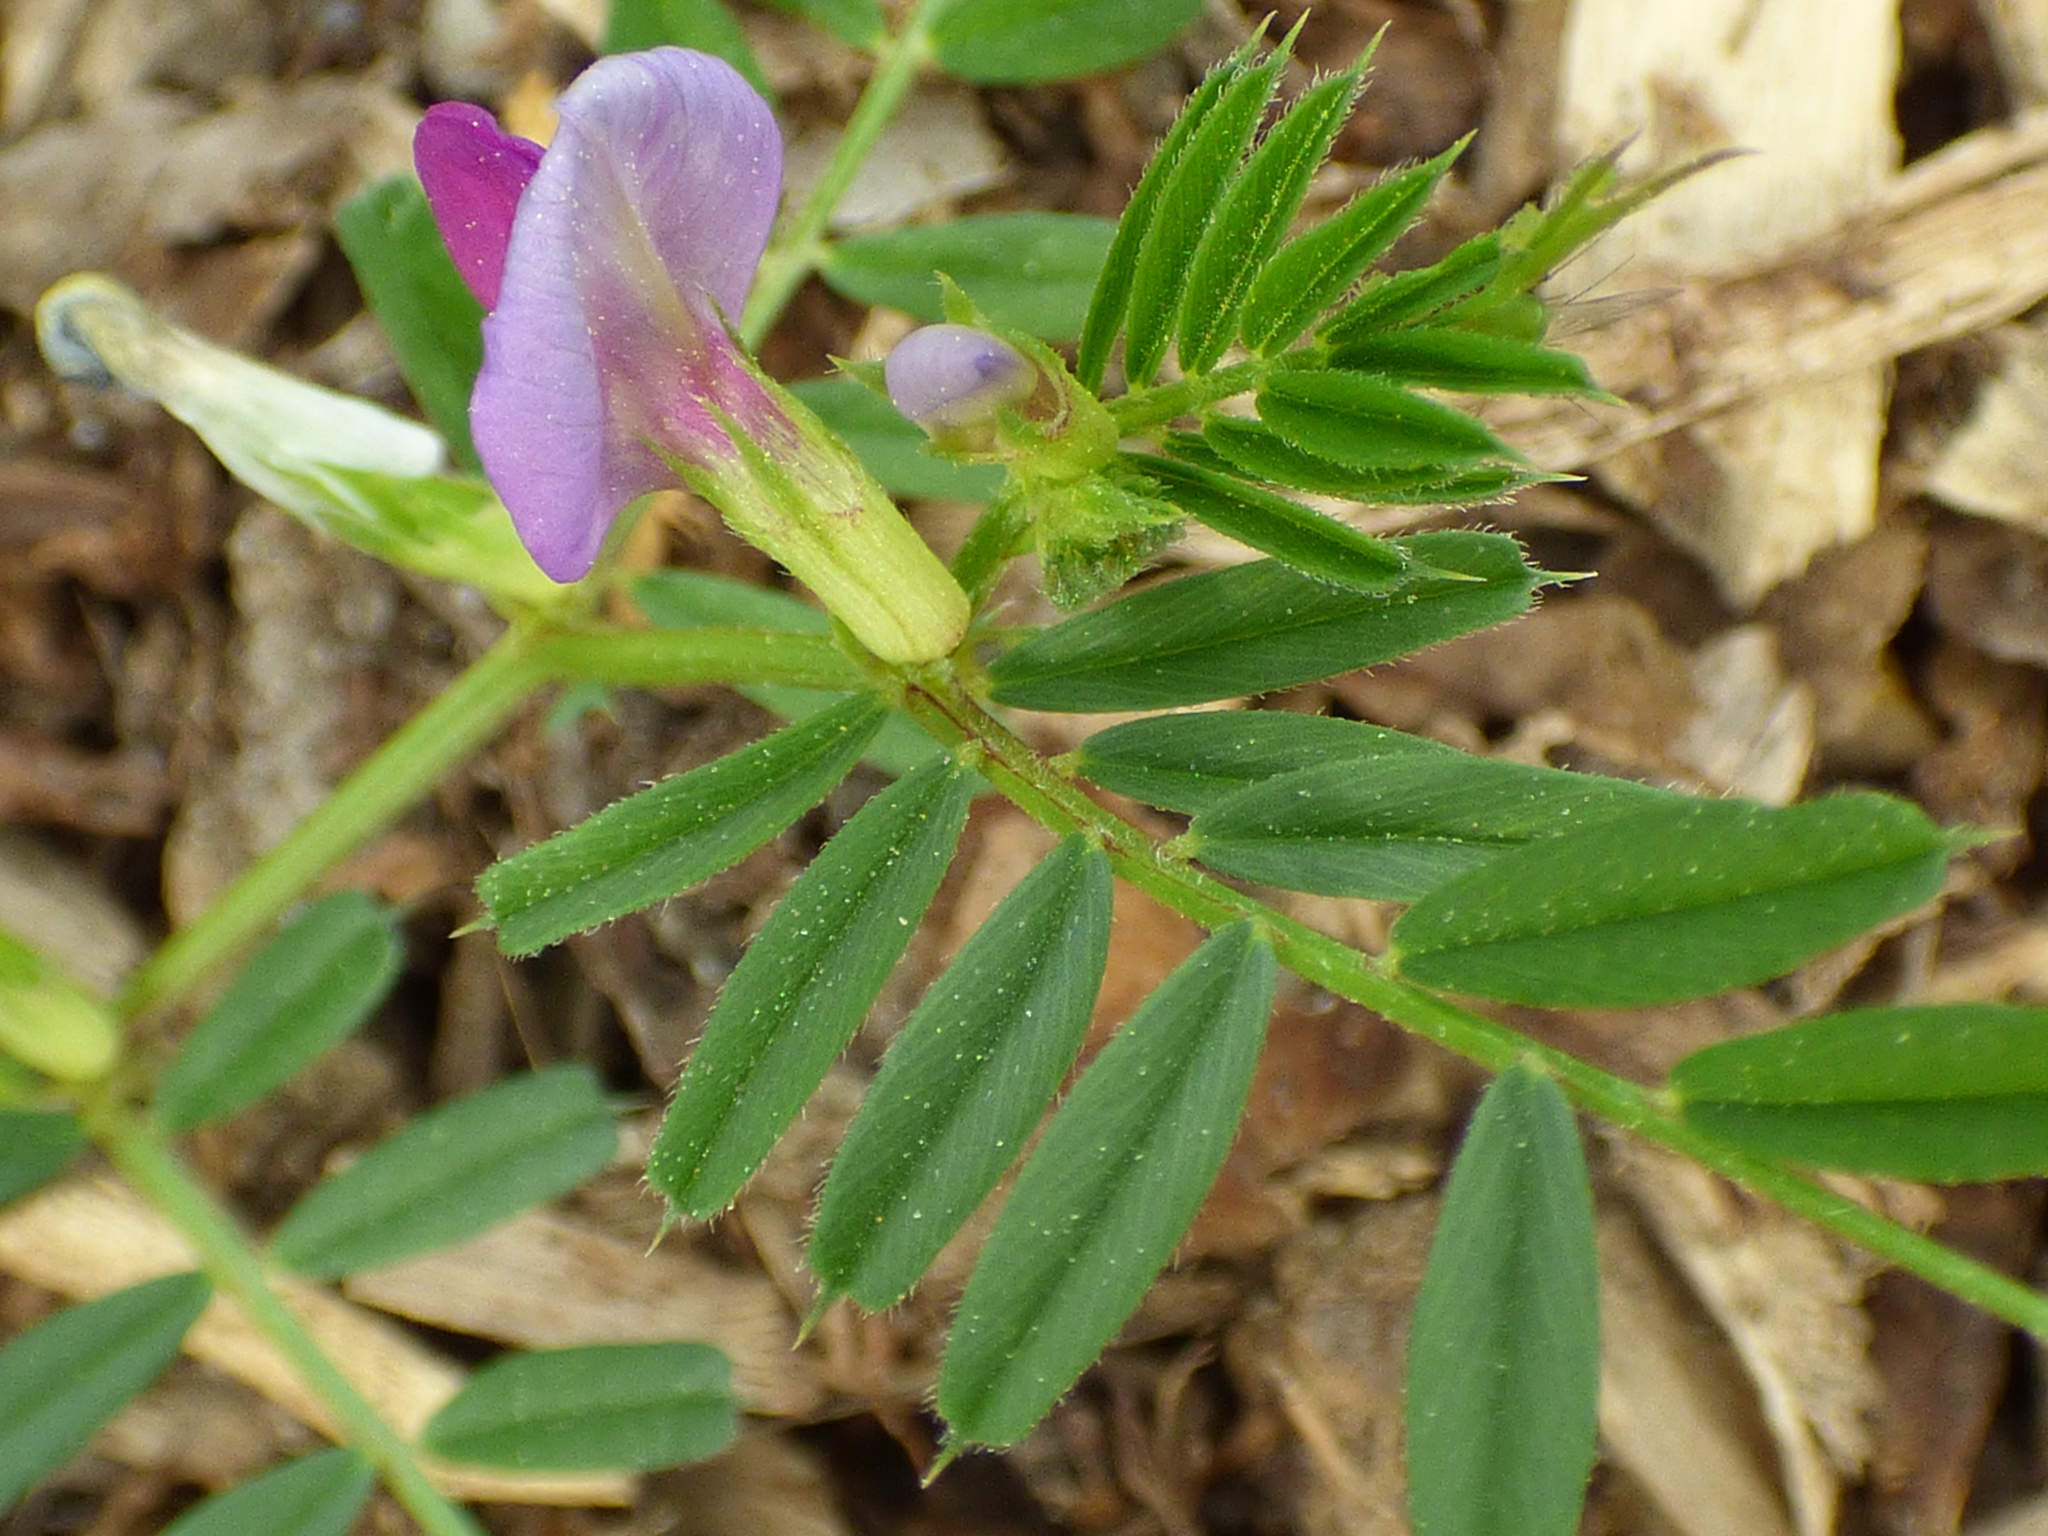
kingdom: Plantae
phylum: Tracheophyta
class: Magnoliopsida
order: Fabales
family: Fabaceae
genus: Vicia
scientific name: Vicia sativa
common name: Garden vetch
